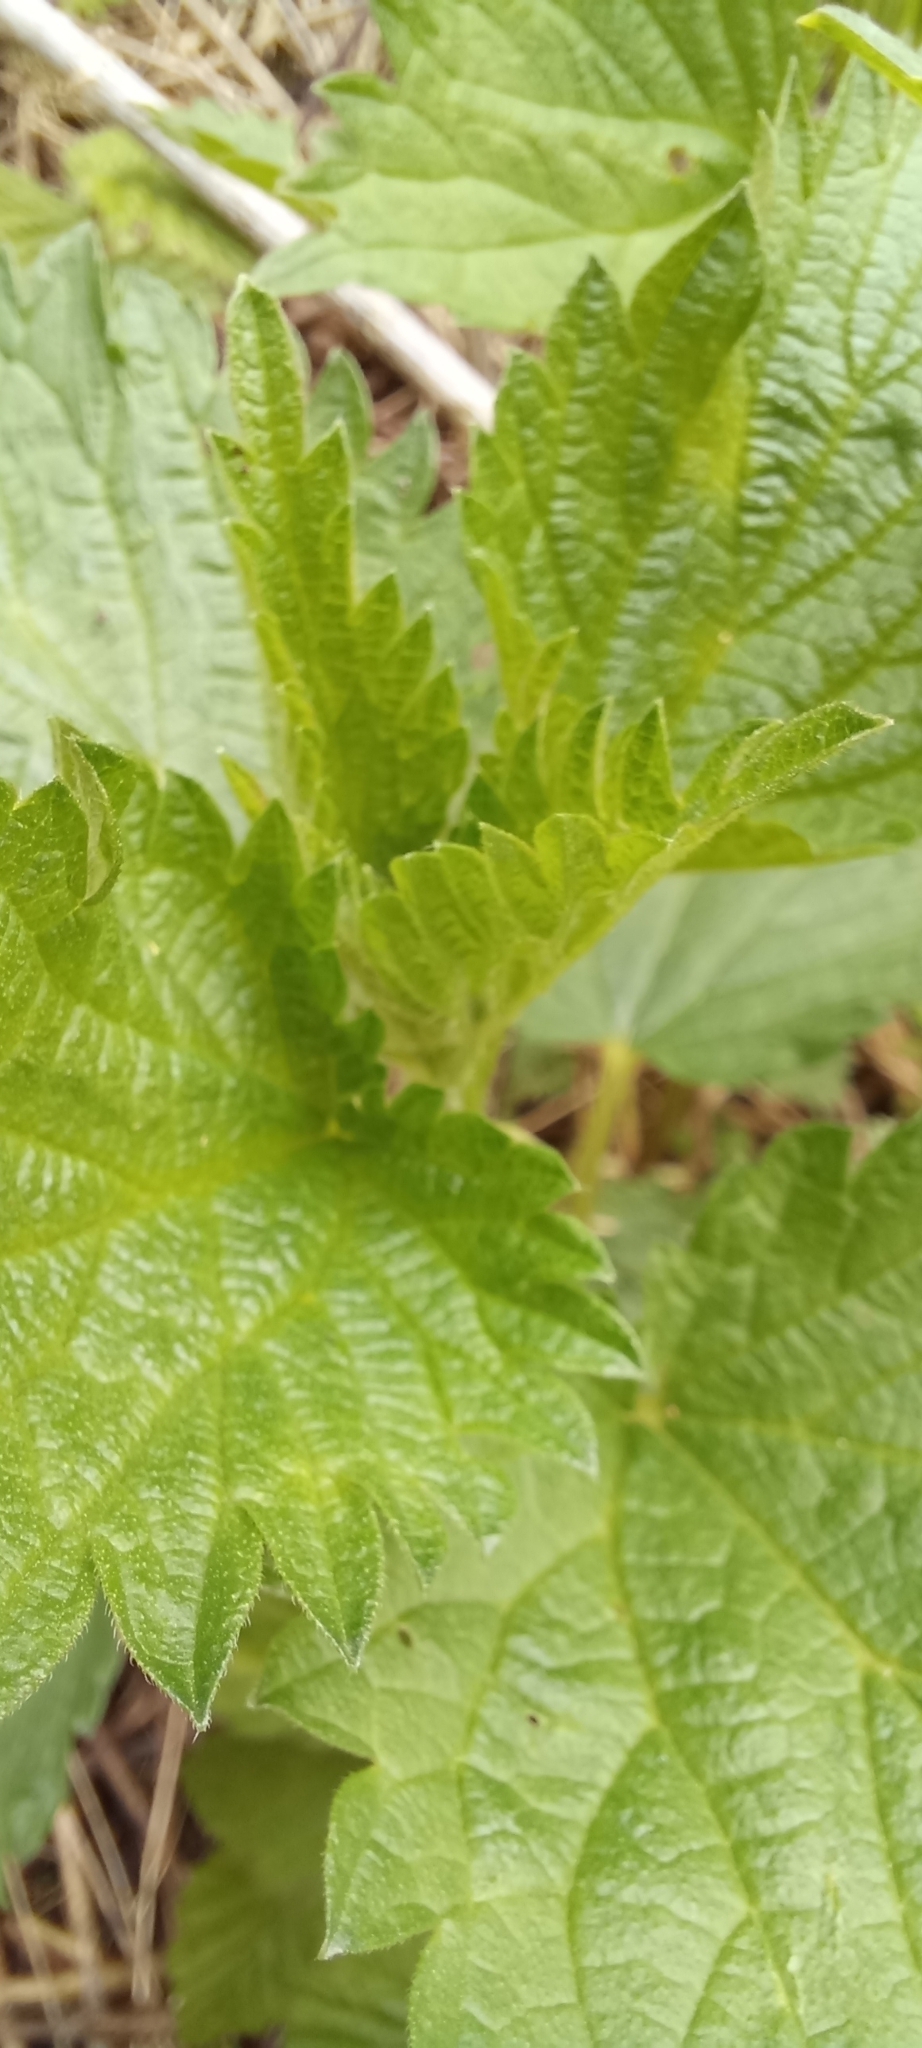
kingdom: Plantae
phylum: Tracheophyta
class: Magnoliopsida
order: Rosales
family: Urticaceae
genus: Urtica
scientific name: Urtica dioica
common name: Common nettle
